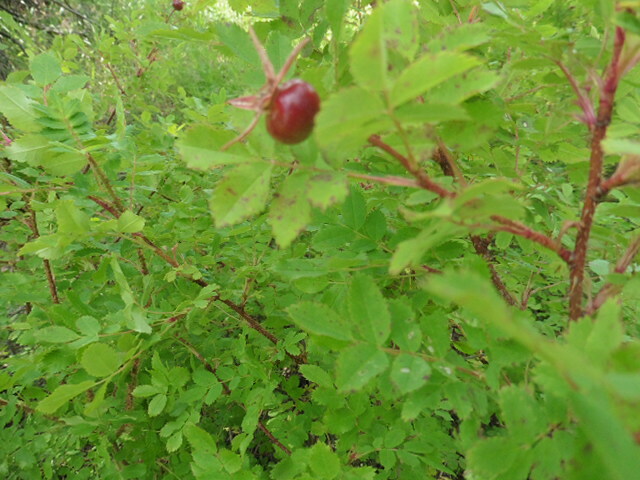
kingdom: Plantae
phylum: Tracheophyta
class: Magnoliopsida
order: Rosales
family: Rosaceae
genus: Rosa
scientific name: Rosa spinosissima
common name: Burnet rose
